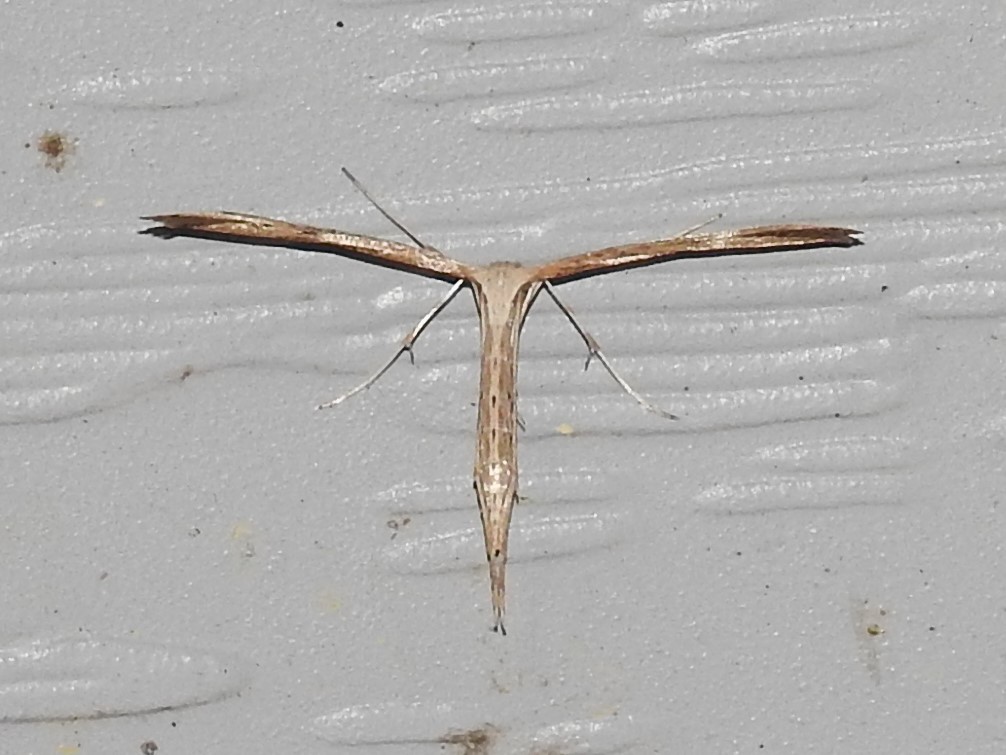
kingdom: Animalia
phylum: Arthropoda
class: Insecta
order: Lepidoptera
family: Pterophoridae
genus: Emmelina
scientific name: Emmelina monodactyla
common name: Common plume
